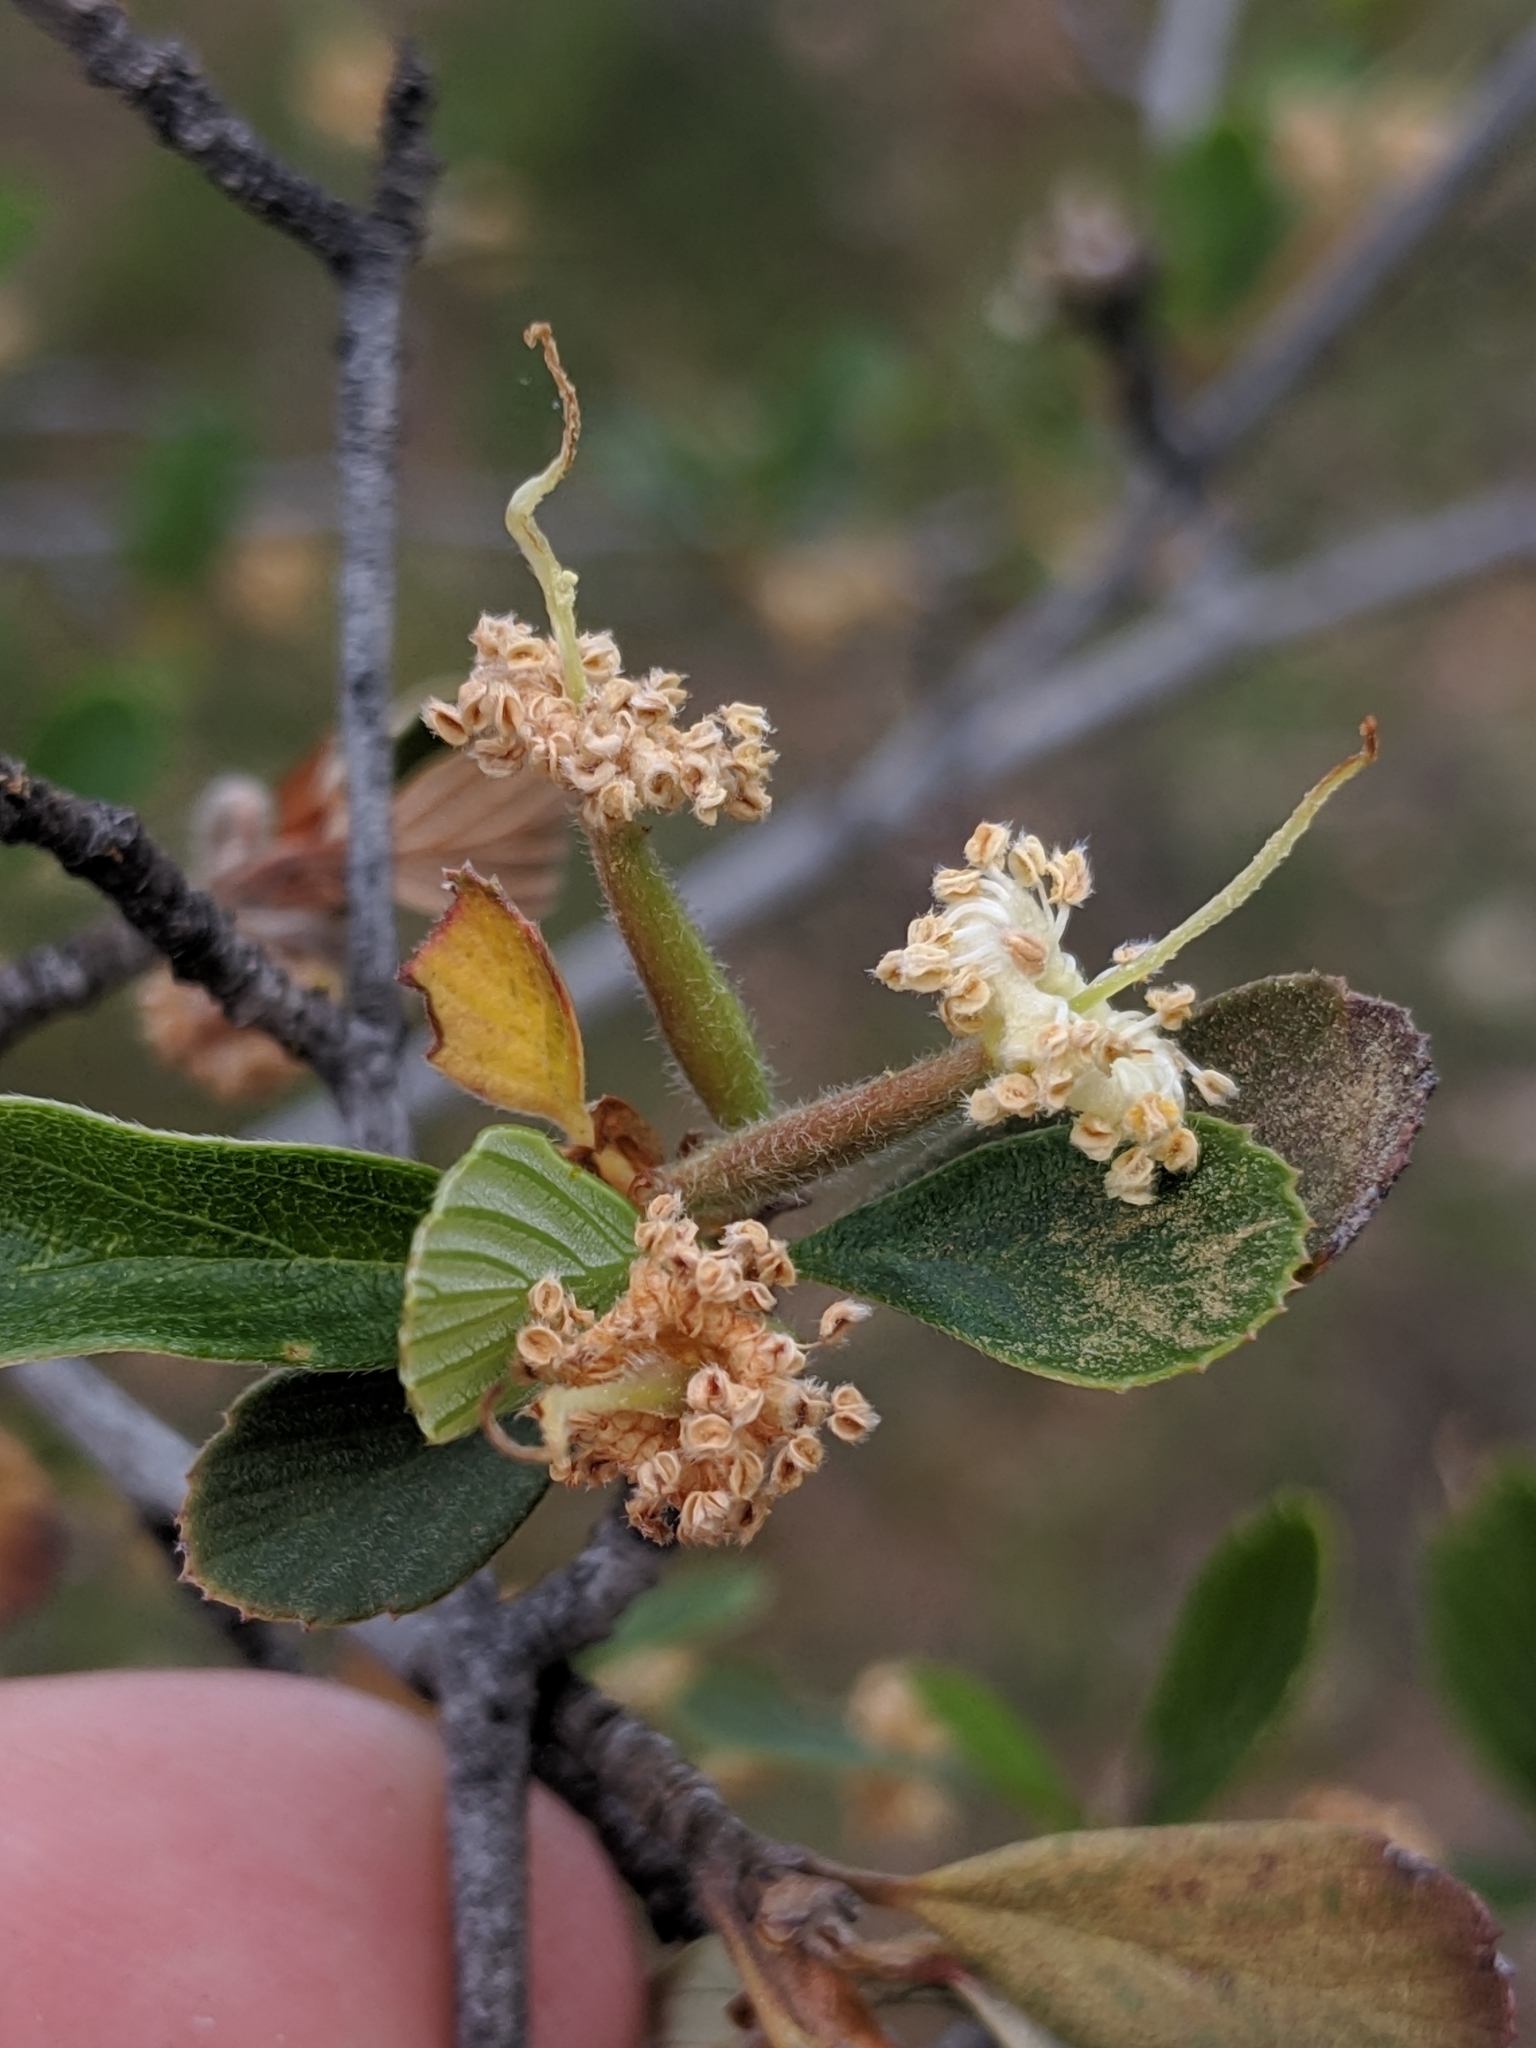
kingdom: Plantae
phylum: Tracheophyta
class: Magnoliopsida
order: Rosales
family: Rosaceae
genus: Cercocarpus
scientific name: Cercocarpus betuloides
